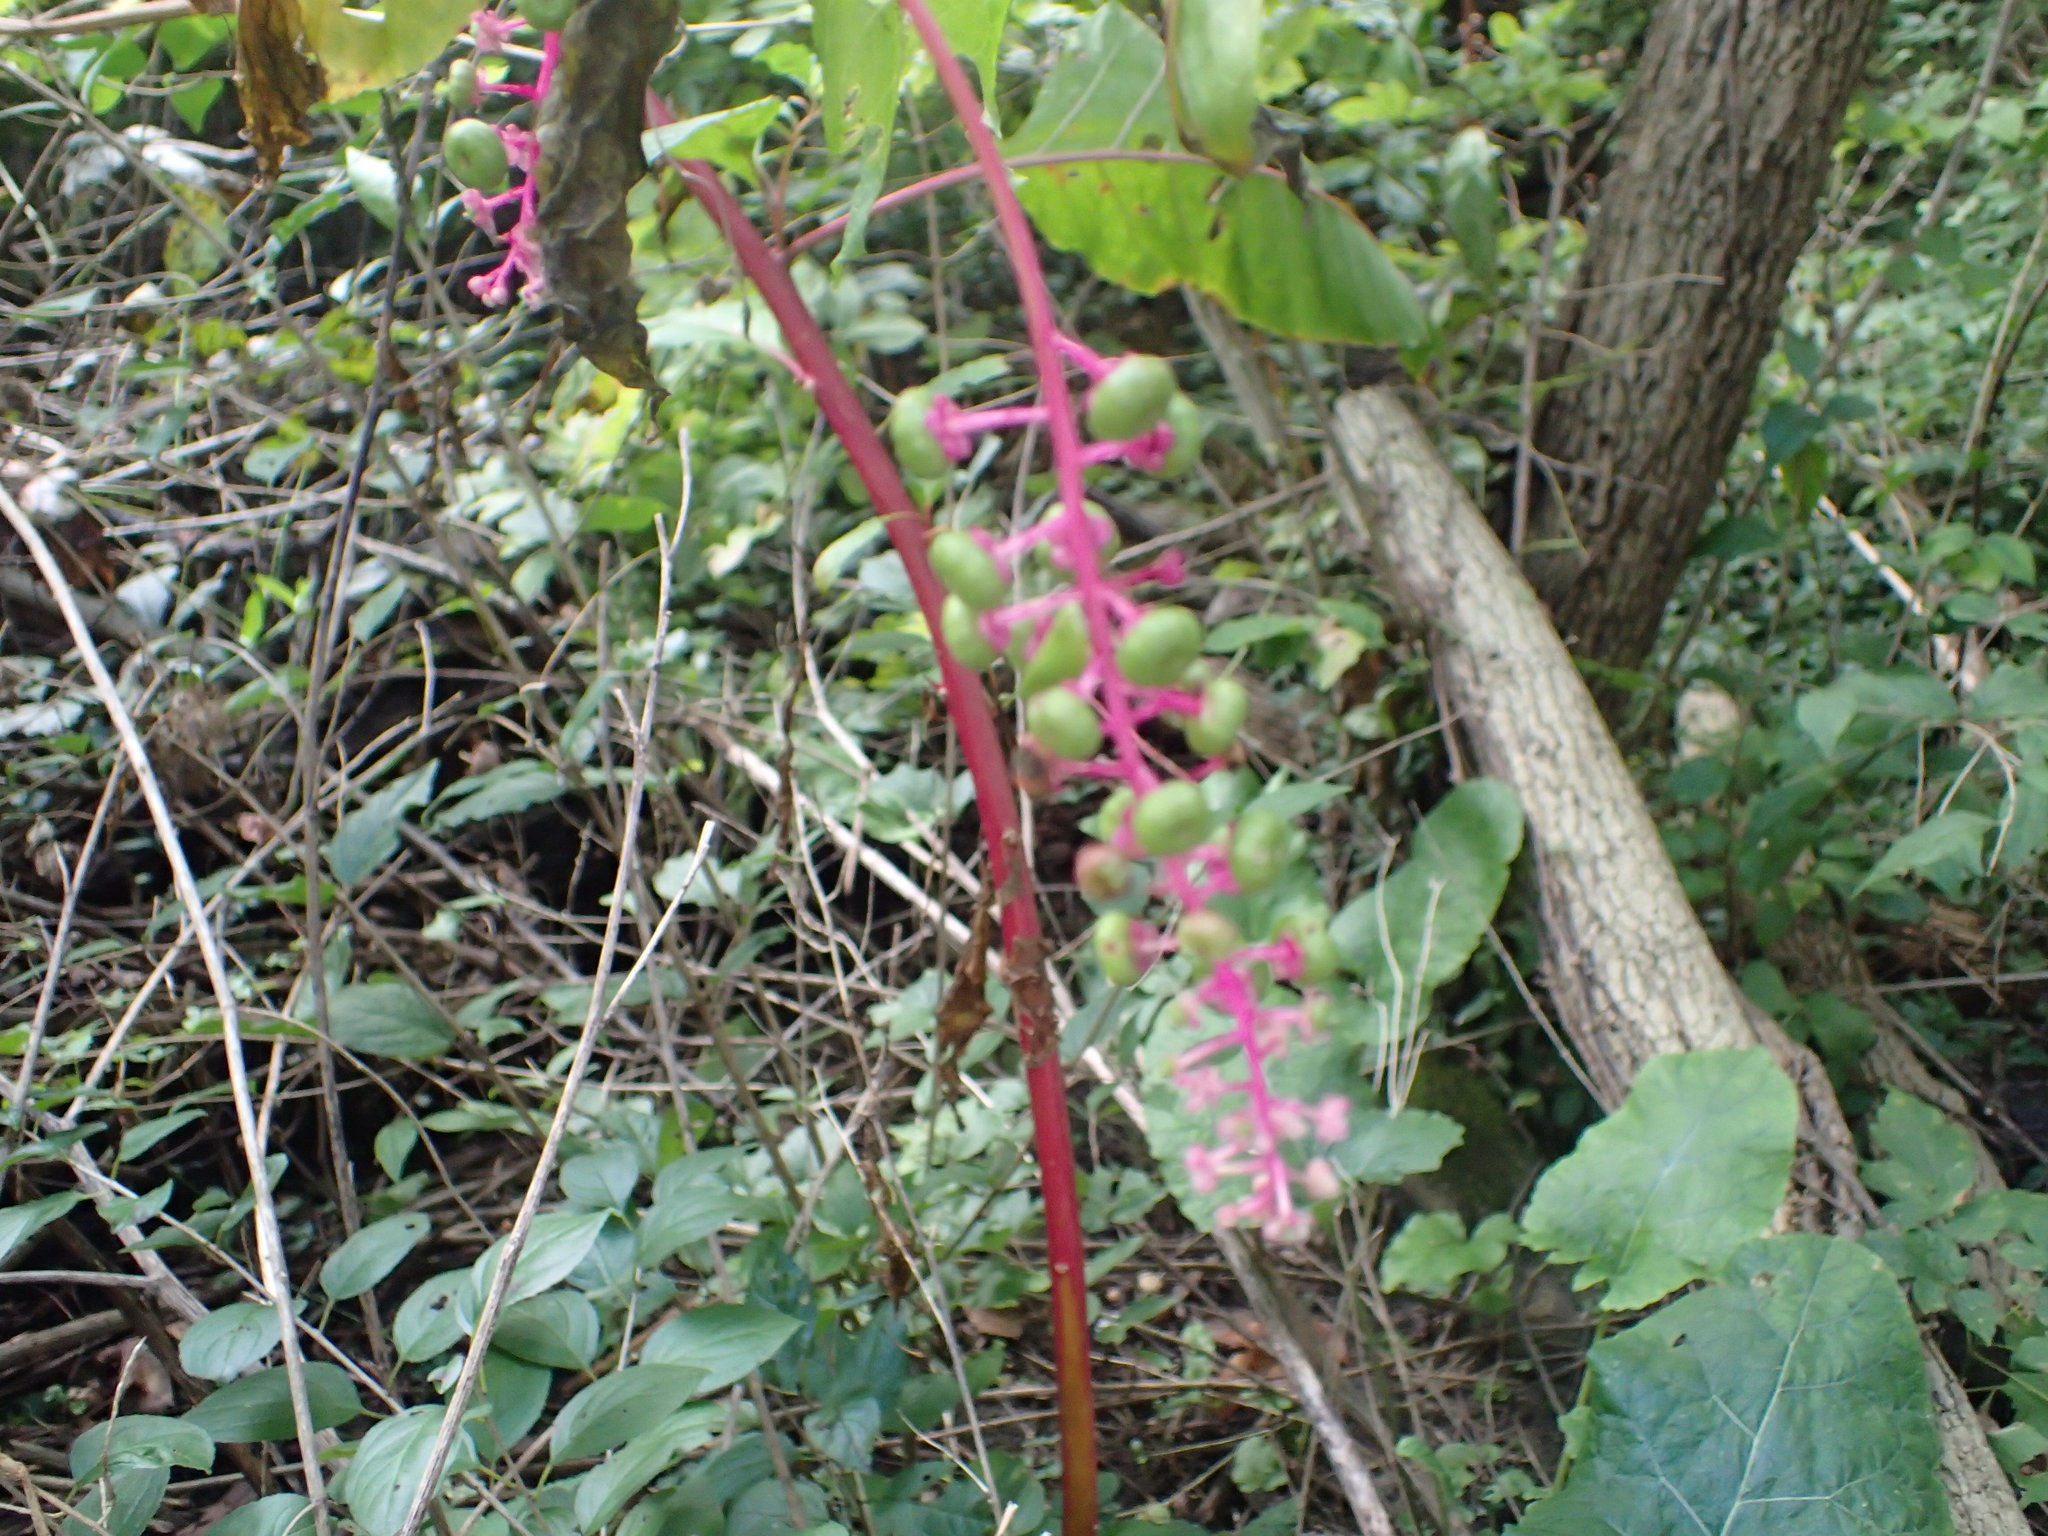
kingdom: Plantae
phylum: Tracheophyta
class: Magnoliopsida
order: Caryophyllales
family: Phytolaccaceae
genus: Phytolacca
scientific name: Phytolacca americana
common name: American pokeweed
